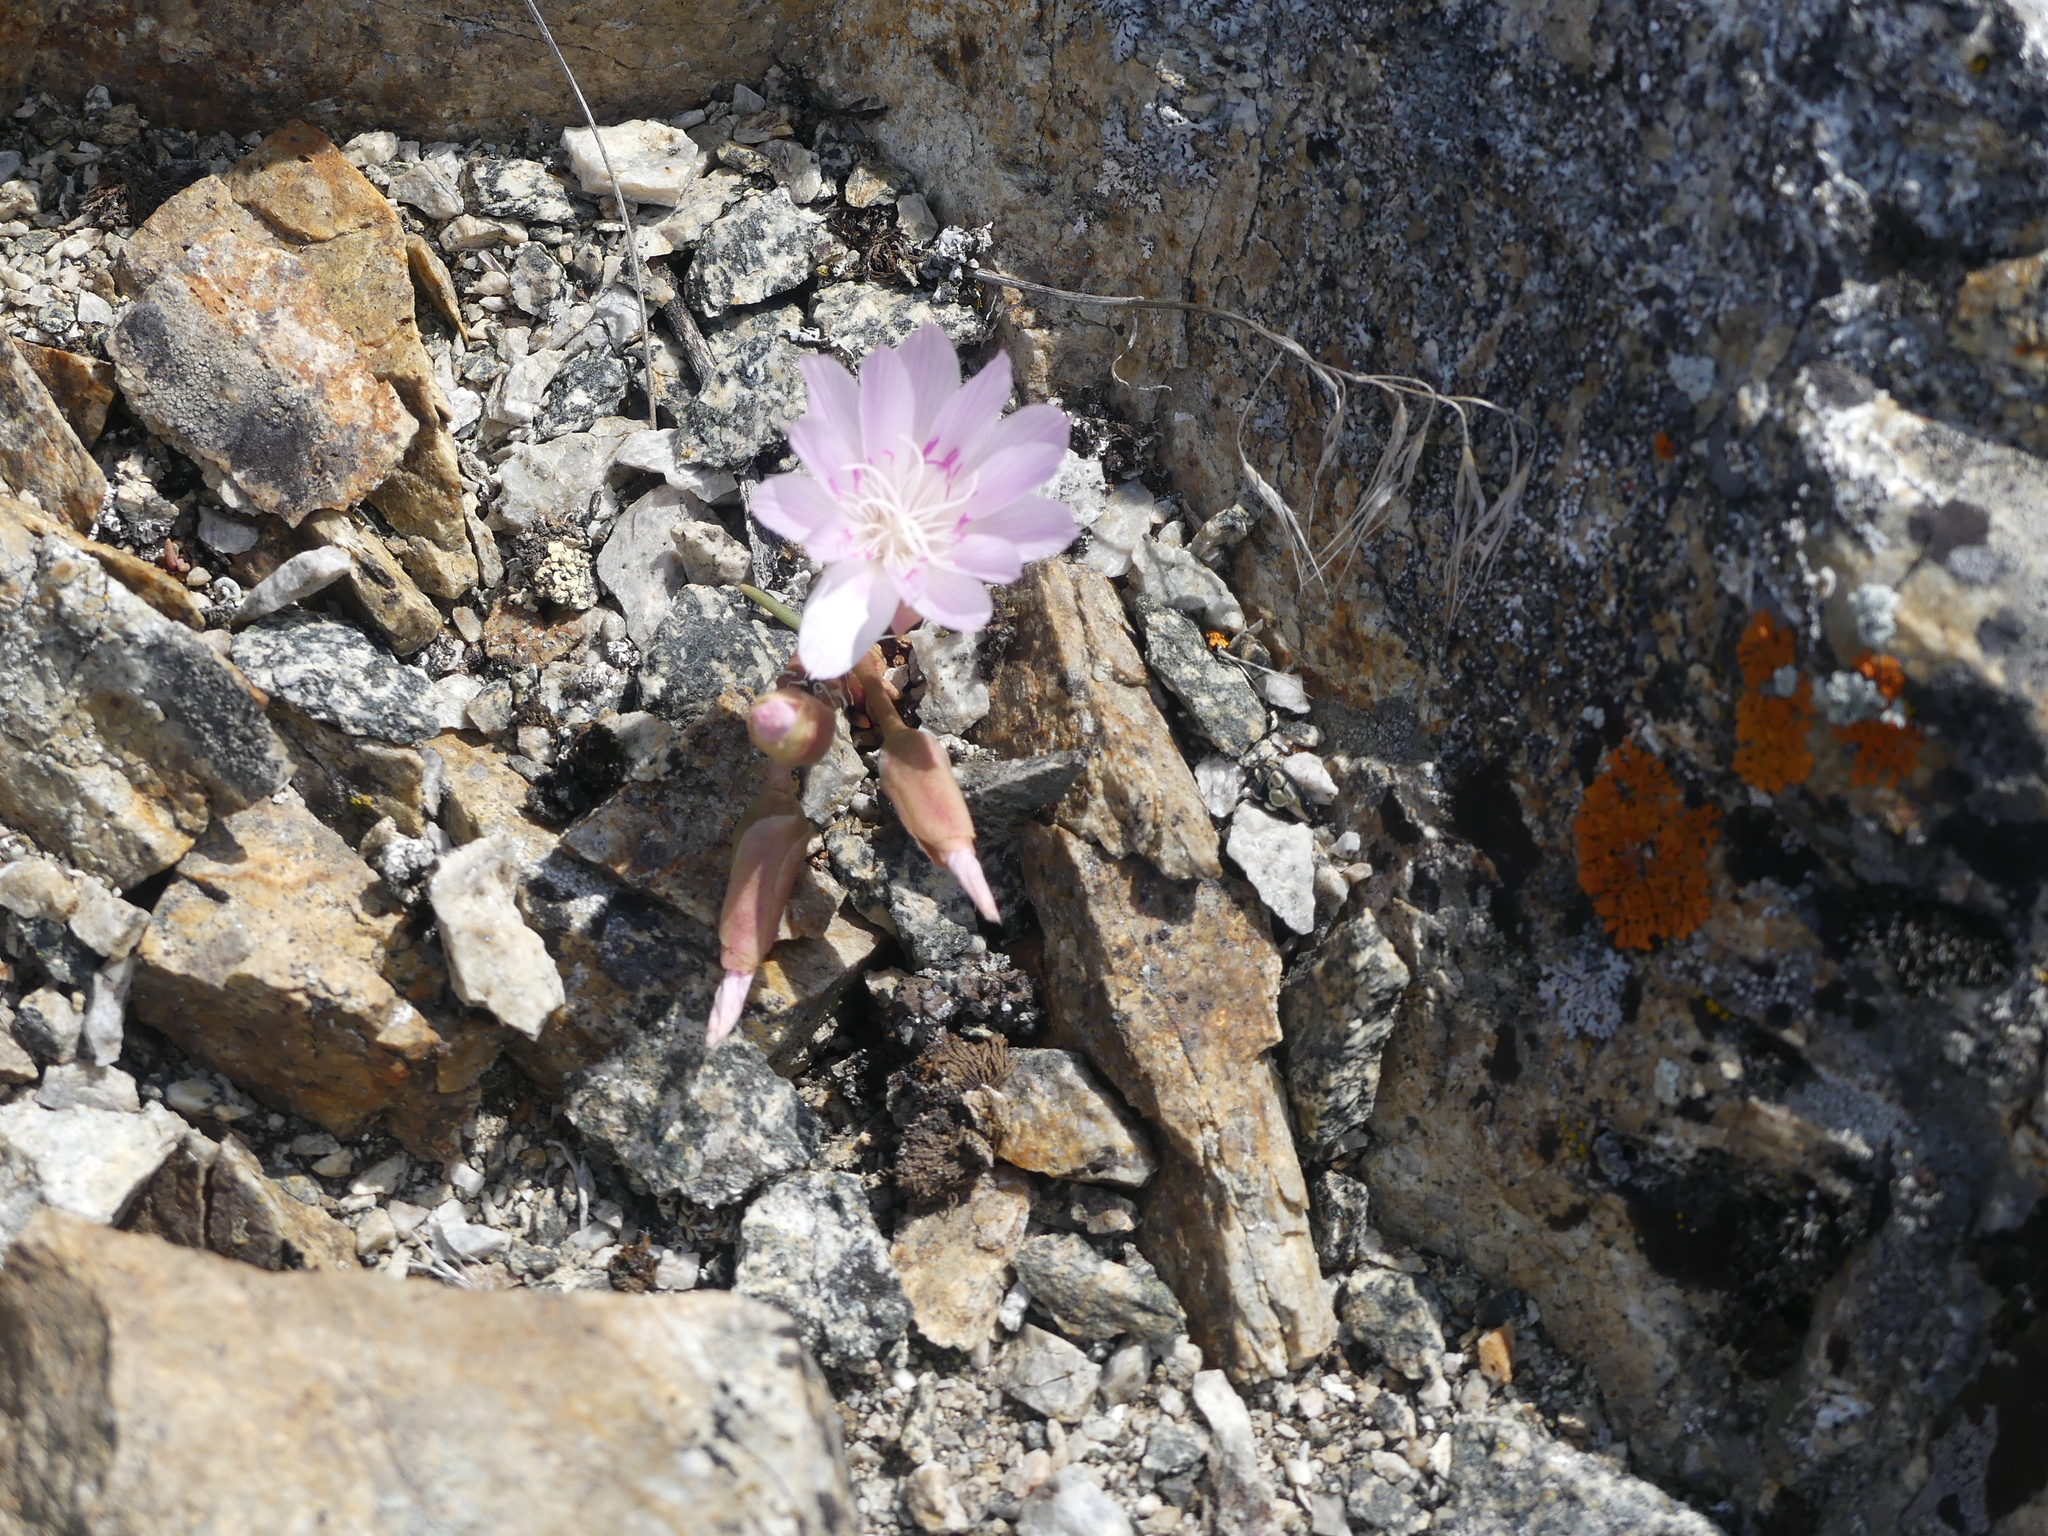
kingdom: Plantae
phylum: Tracheophyta
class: Magnoliopsida
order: Caryophyllales
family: Montiaceae
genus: Lewisia
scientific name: Lewisia rediviva
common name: Bitter-root
